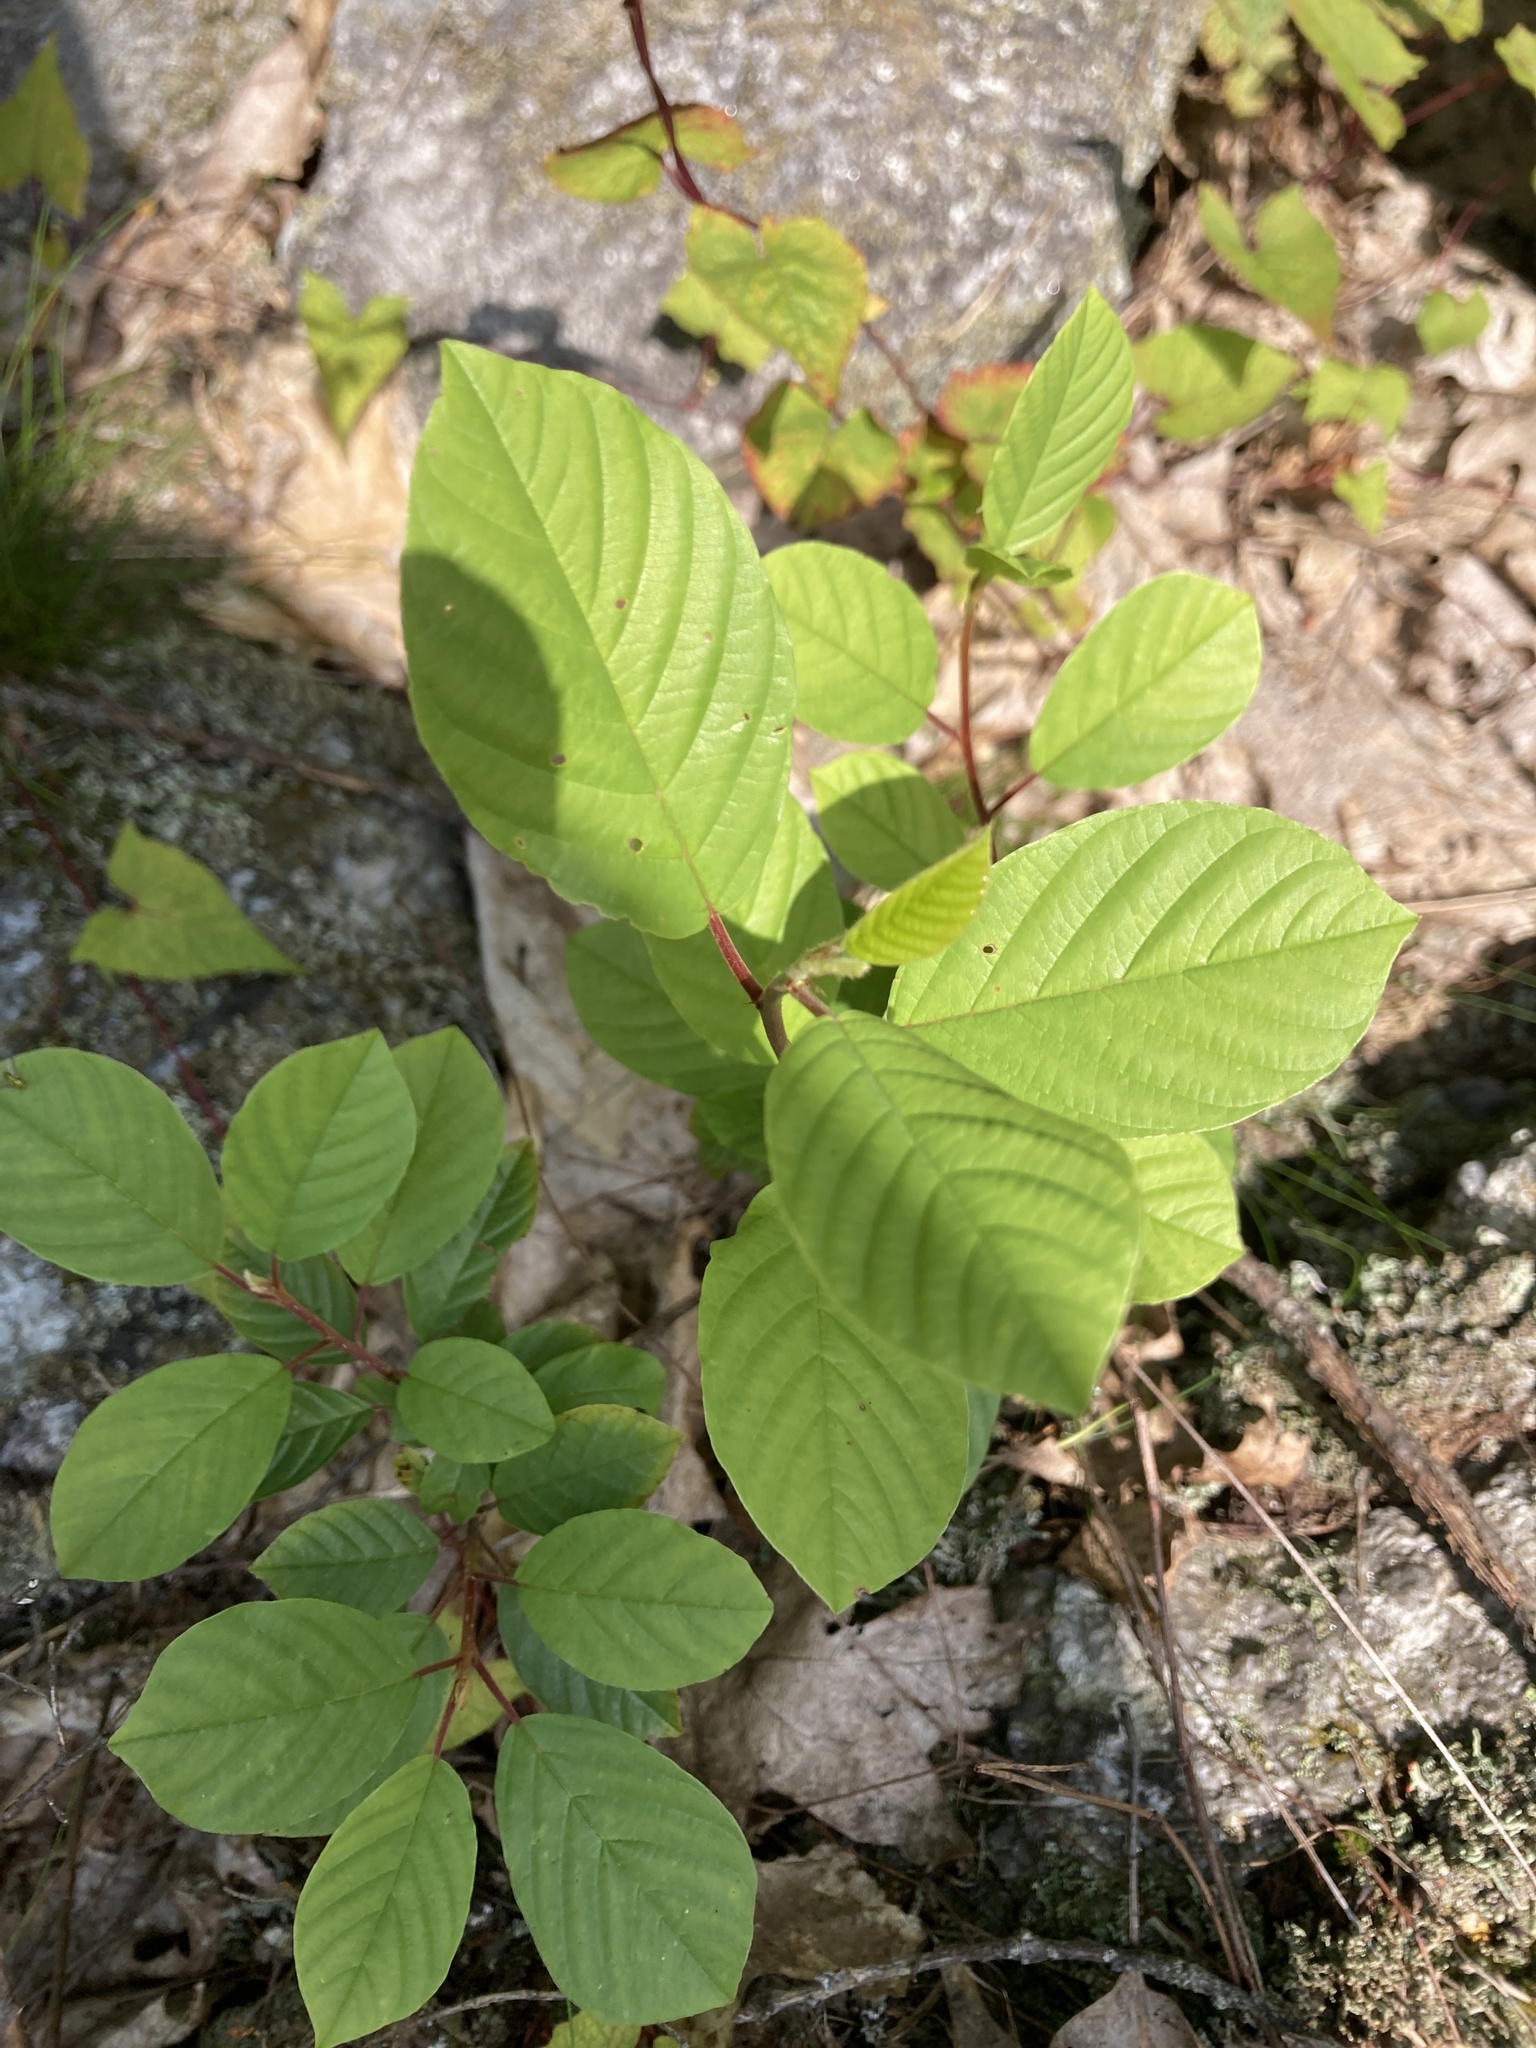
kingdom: Plantae
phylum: Tracheophyta
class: Magnoliopsida
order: Rosales
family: Rhamnaceae
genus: Frangula
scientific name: Frangula alnus
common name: Alder buckthorn
